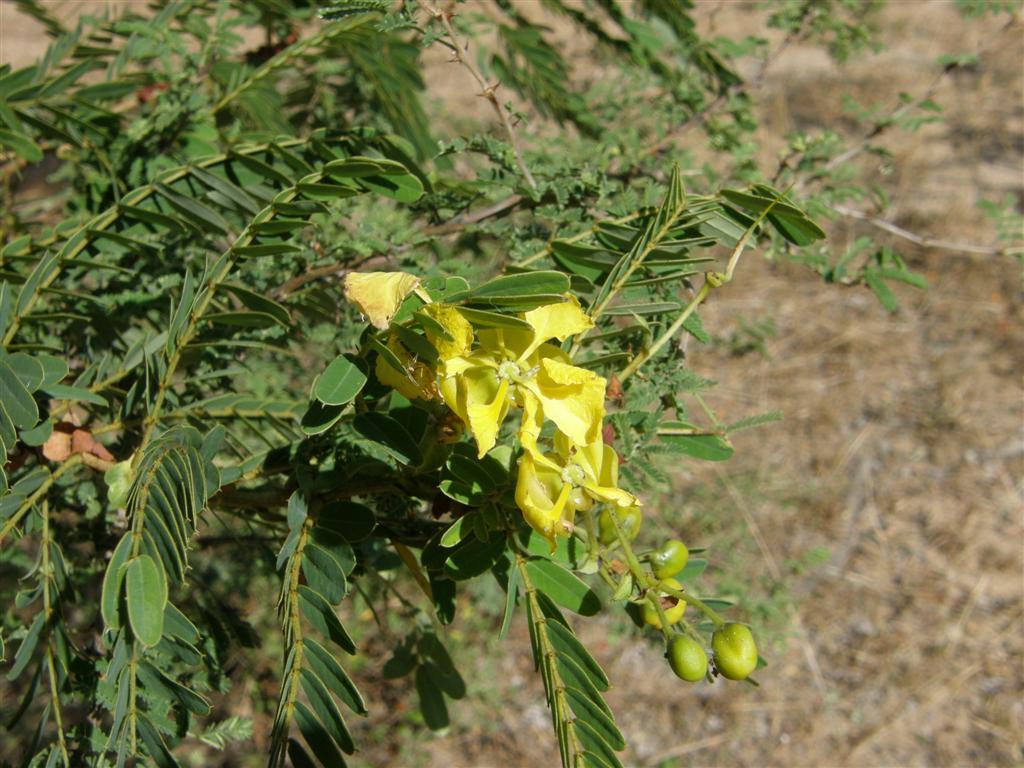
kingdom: Plantae
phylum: Tracheophyta
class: Magnoliopsida
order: Fabales
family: Fabaceae
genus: Senna
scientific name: Senna auriculata
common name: Tanner's cassia
